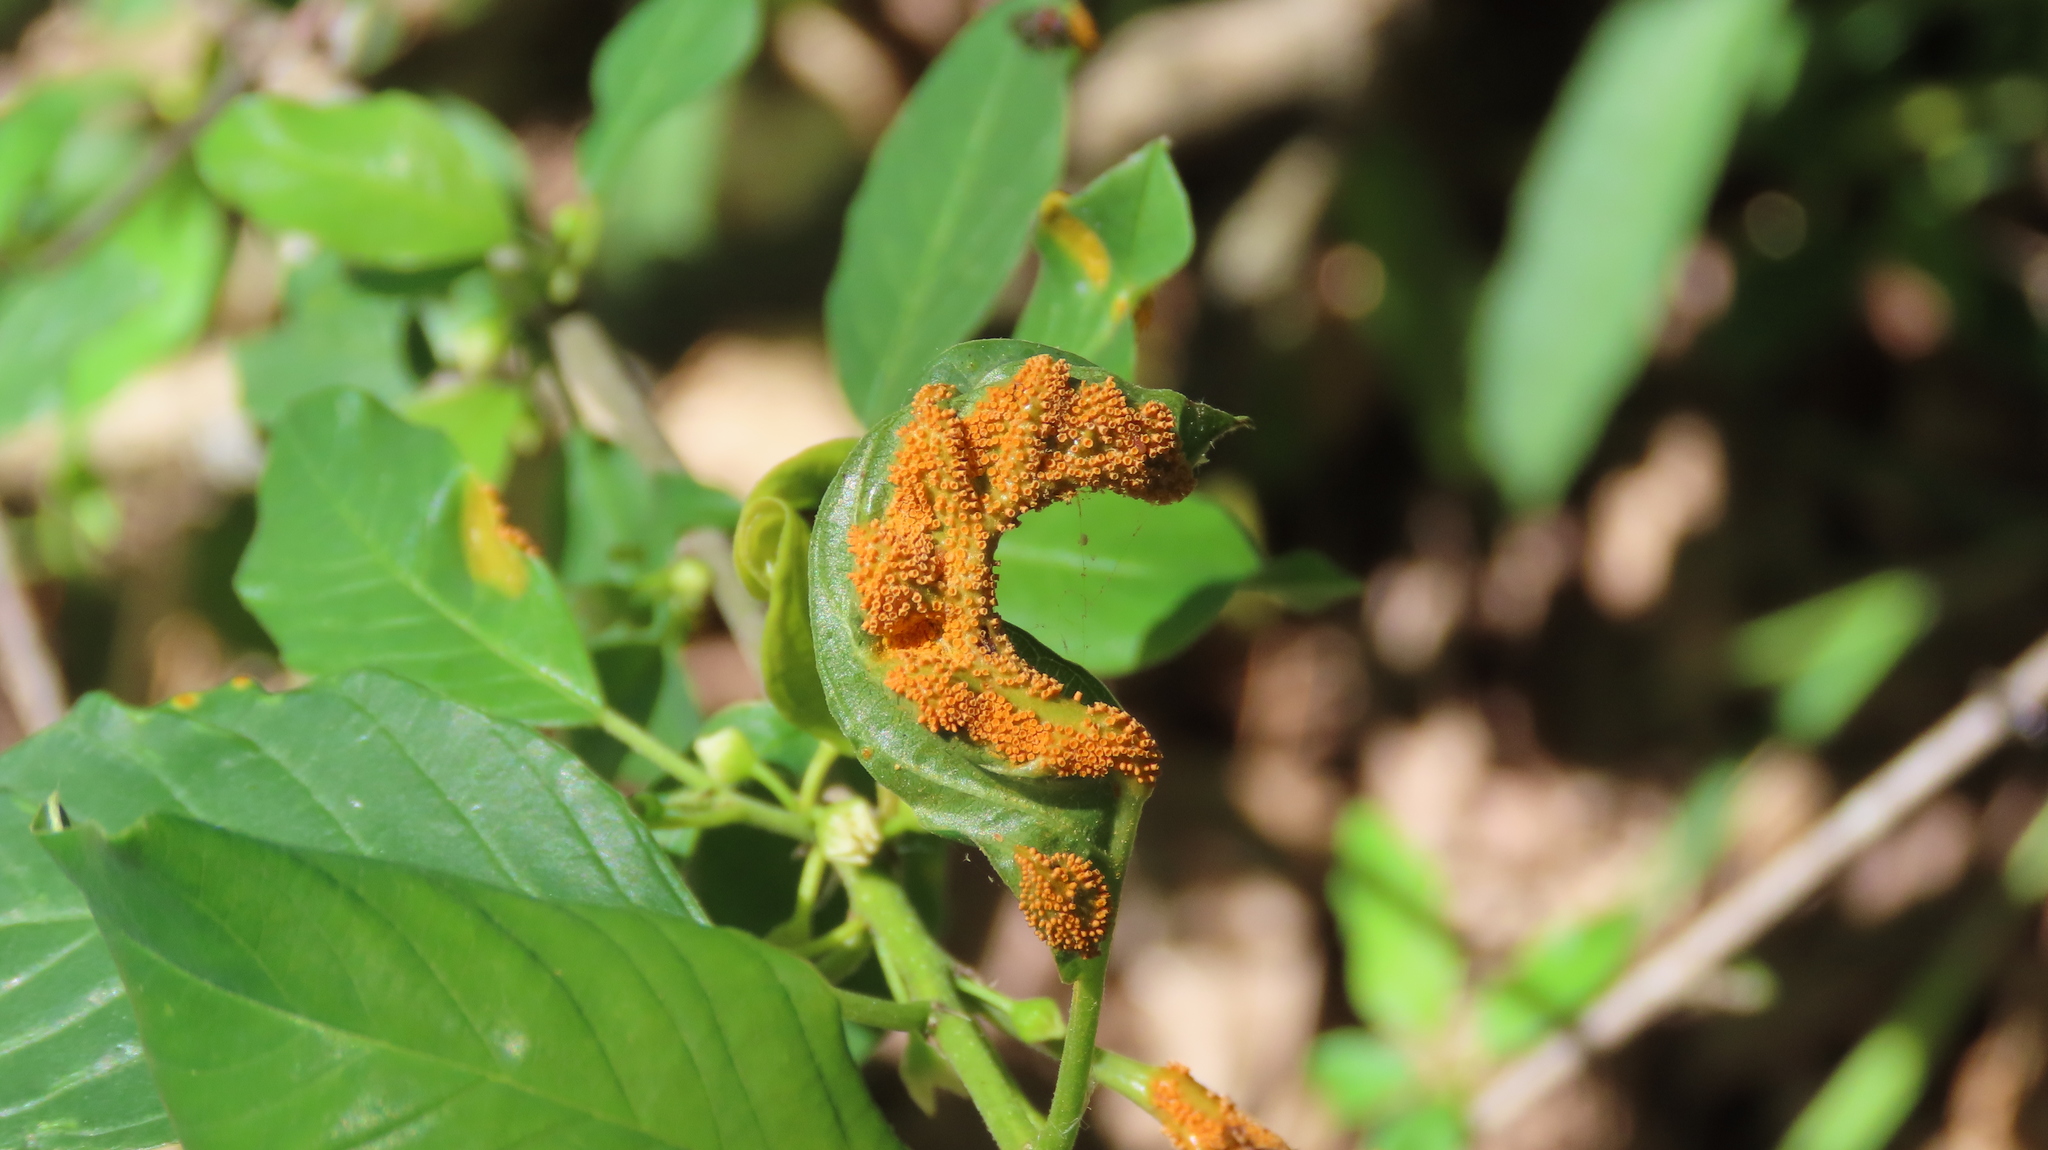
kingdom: Fungi
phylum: Basidiomycota
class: Pucciniomycetes
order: Pucciniales
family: Pucciniaceae
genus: Puccinia
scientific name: Puccinia coronata
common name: Crown rust
